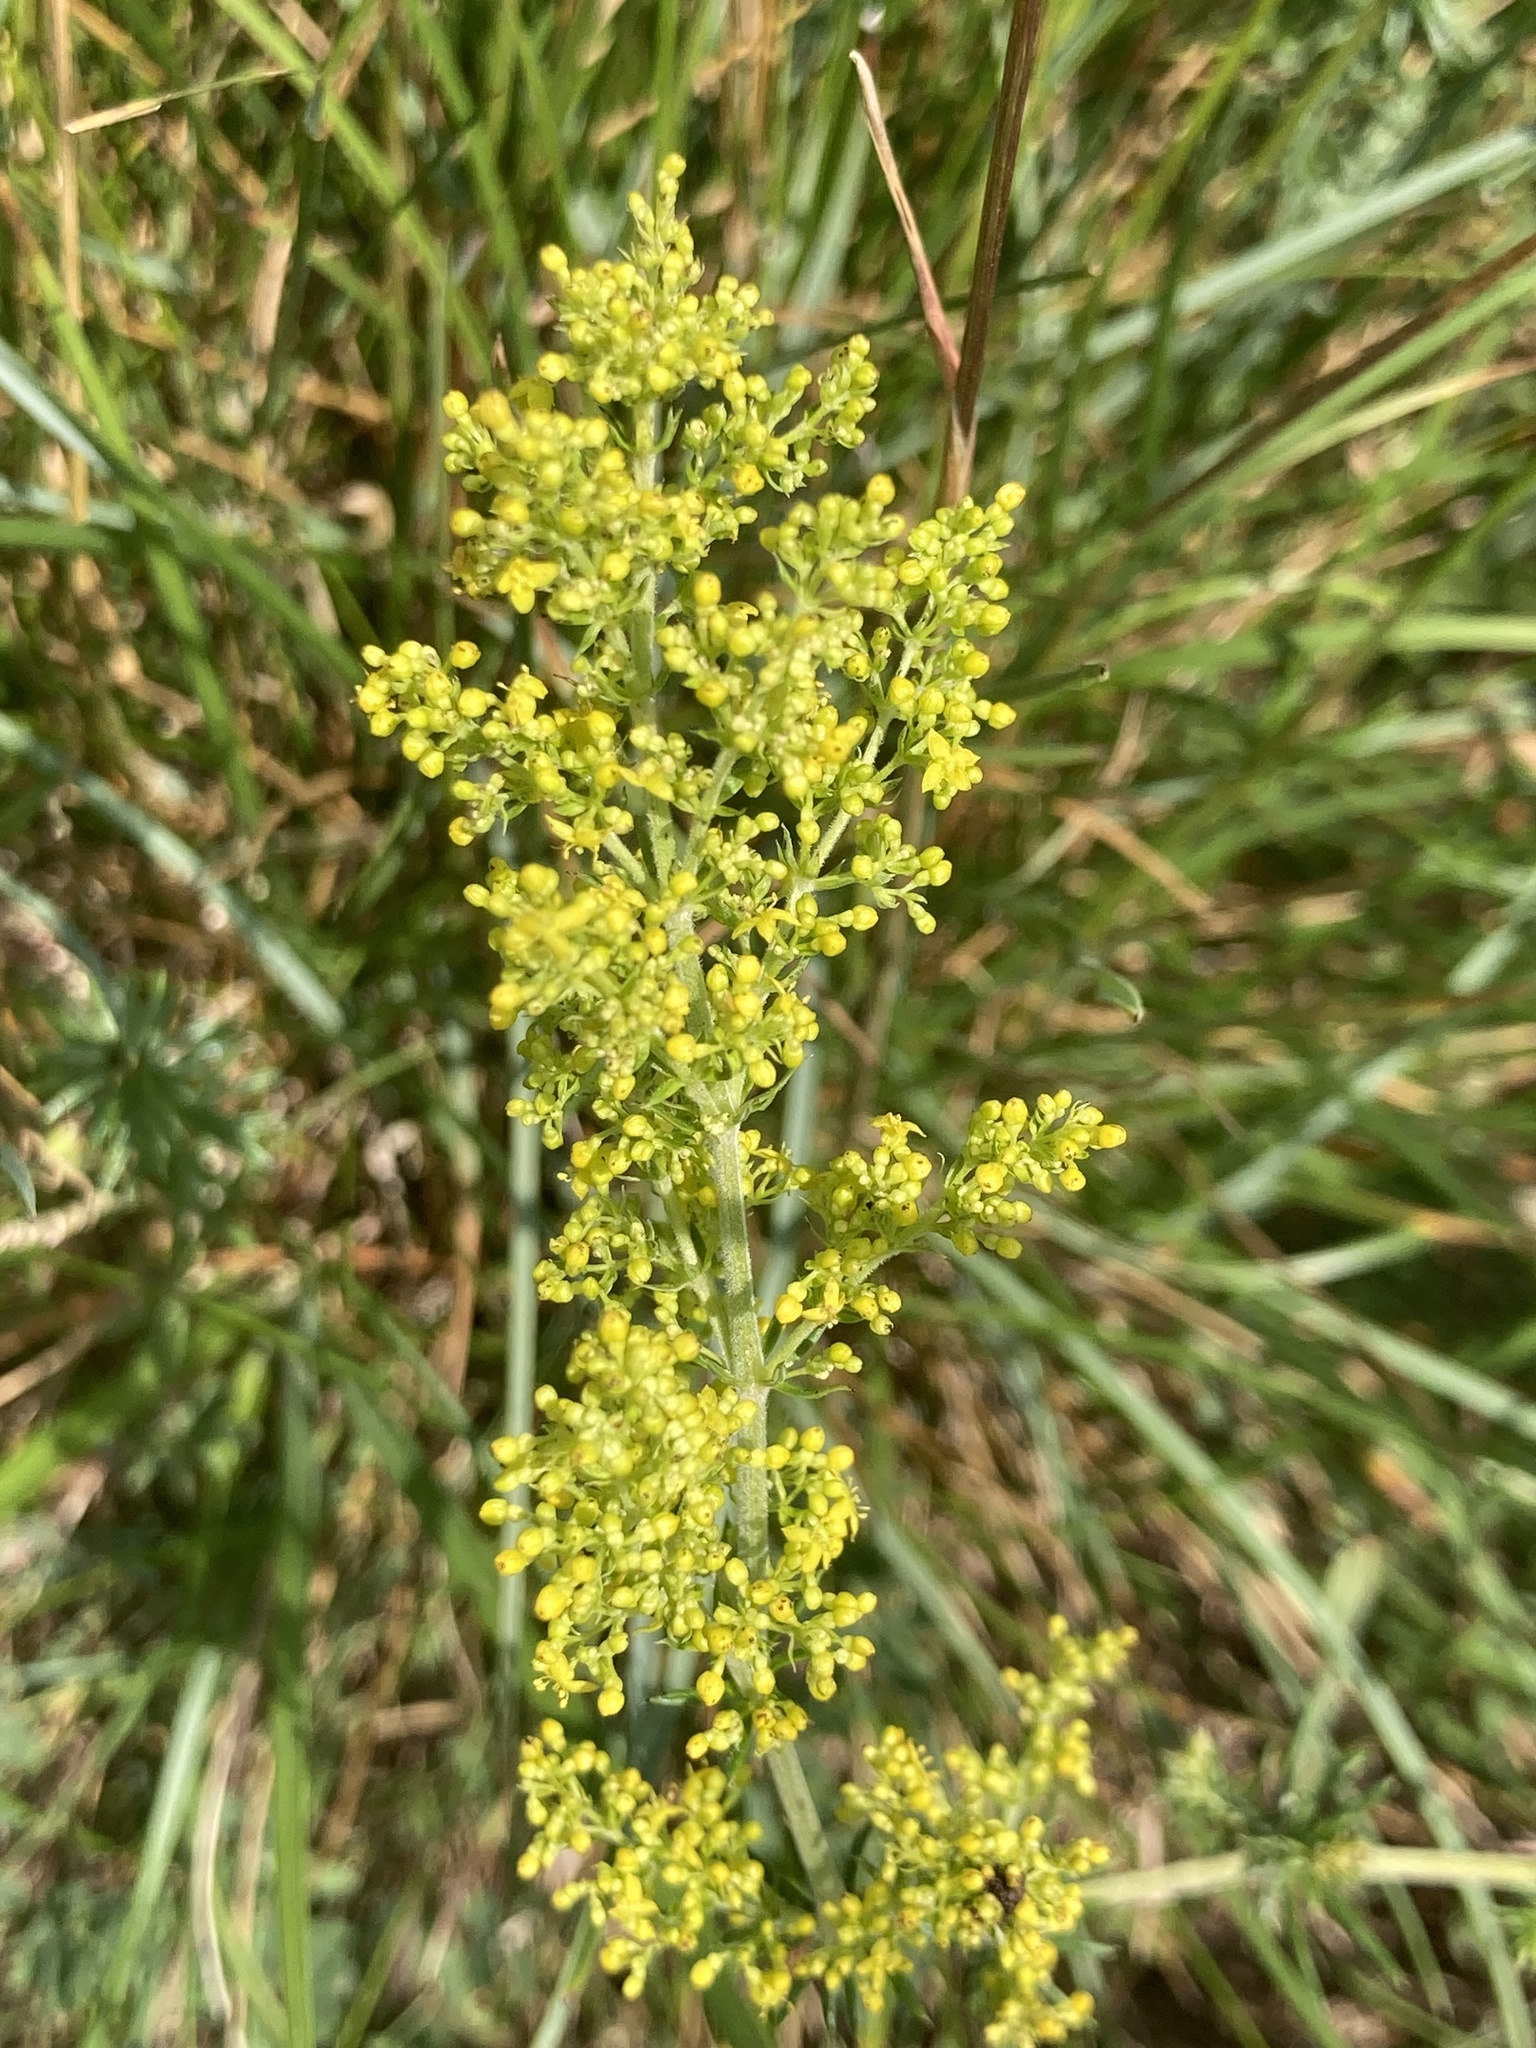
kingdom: Plantae
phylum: Tracheophyta
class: Magnoliopsida
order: Gentianales
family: Rubiaceae
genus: Galium
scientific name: Galium verum
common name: Lady's bedstraw
